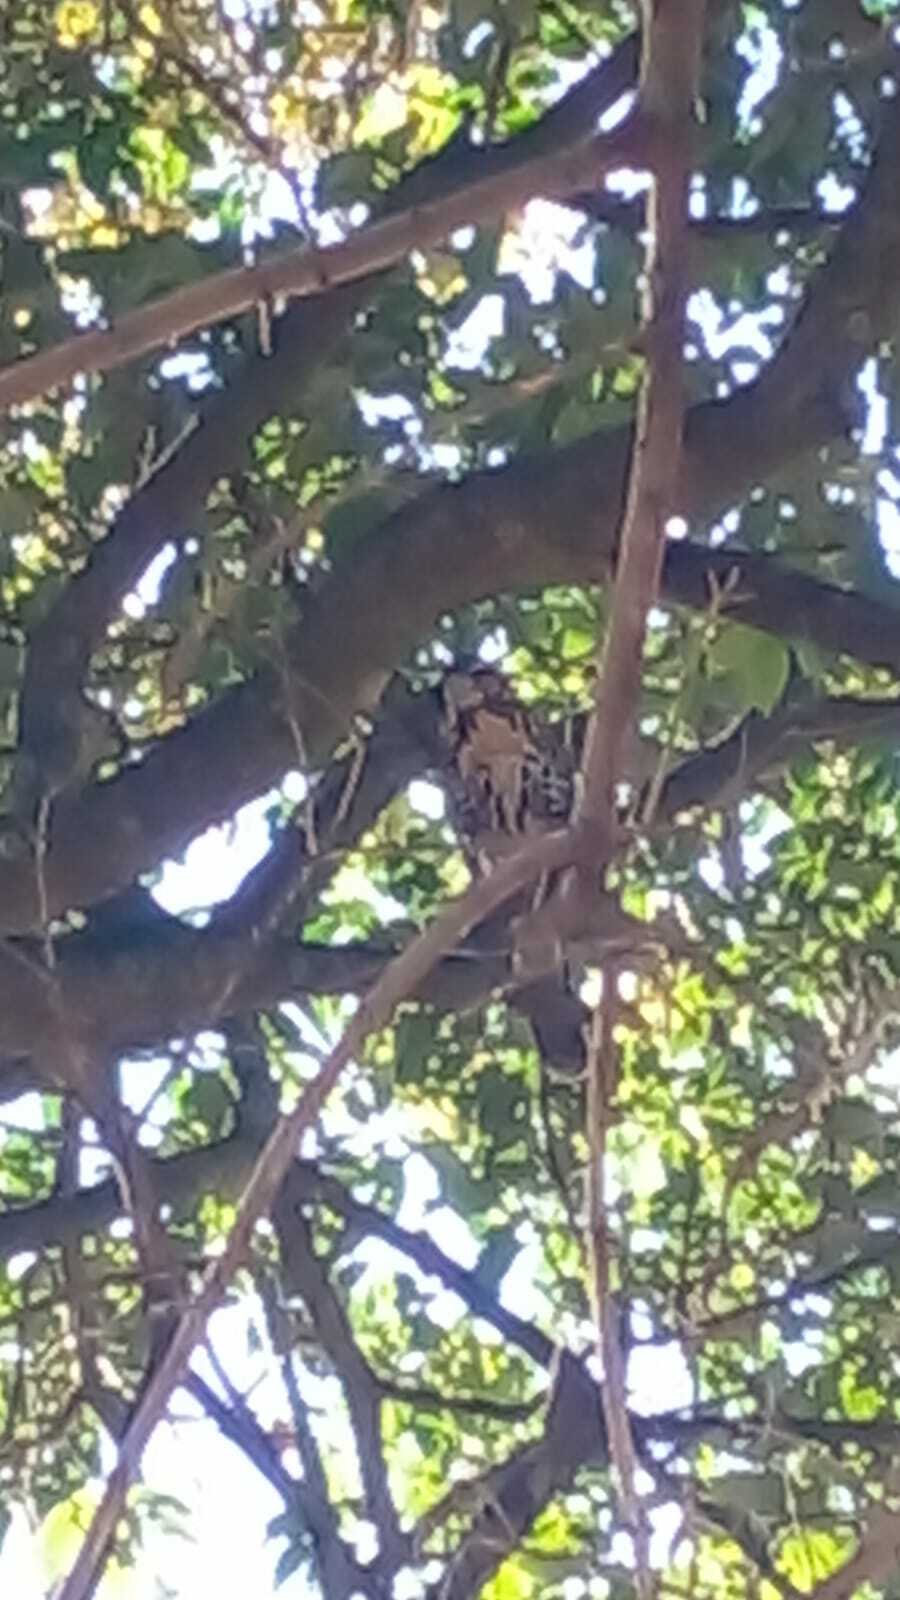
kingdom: Animalia
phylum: Chordata
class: Aves
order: Accipitriformes
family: Accipitridae
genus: Parabuteo
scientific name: Parabuteo unicinctus
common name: Harris's hawk
